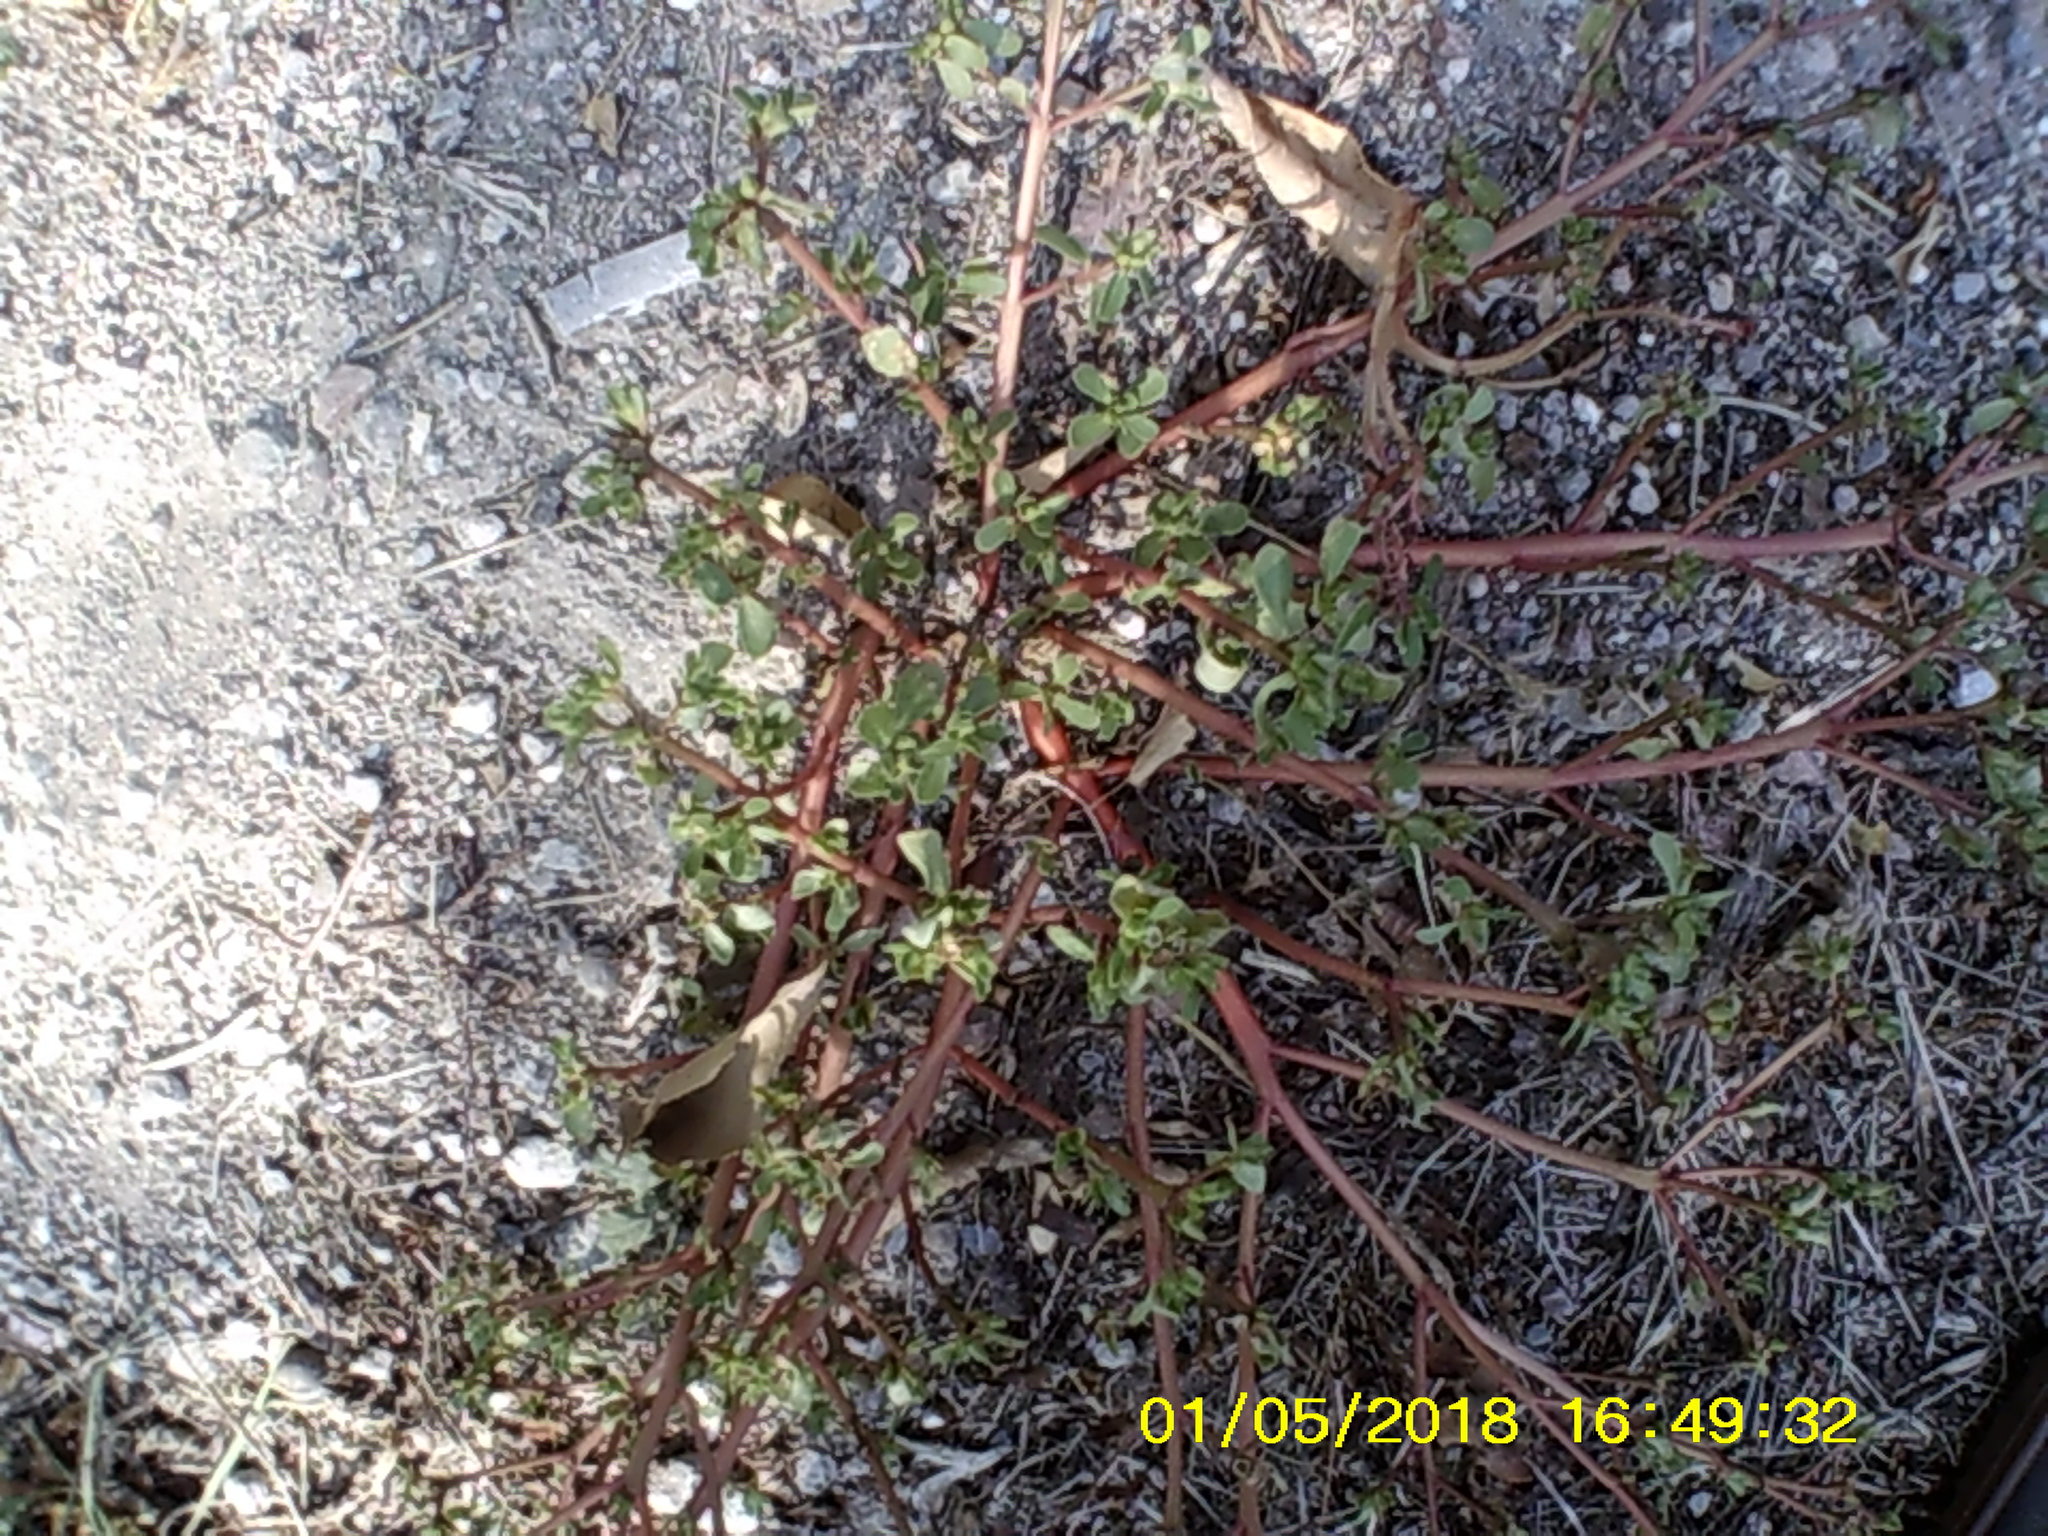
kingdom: Plantae
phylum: Tracheophyta
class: Magnoliopsida
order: Caryophyllales
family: Portulacaceae
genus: Portulaca
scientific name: Portulaca oleracea
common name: Common purslane
